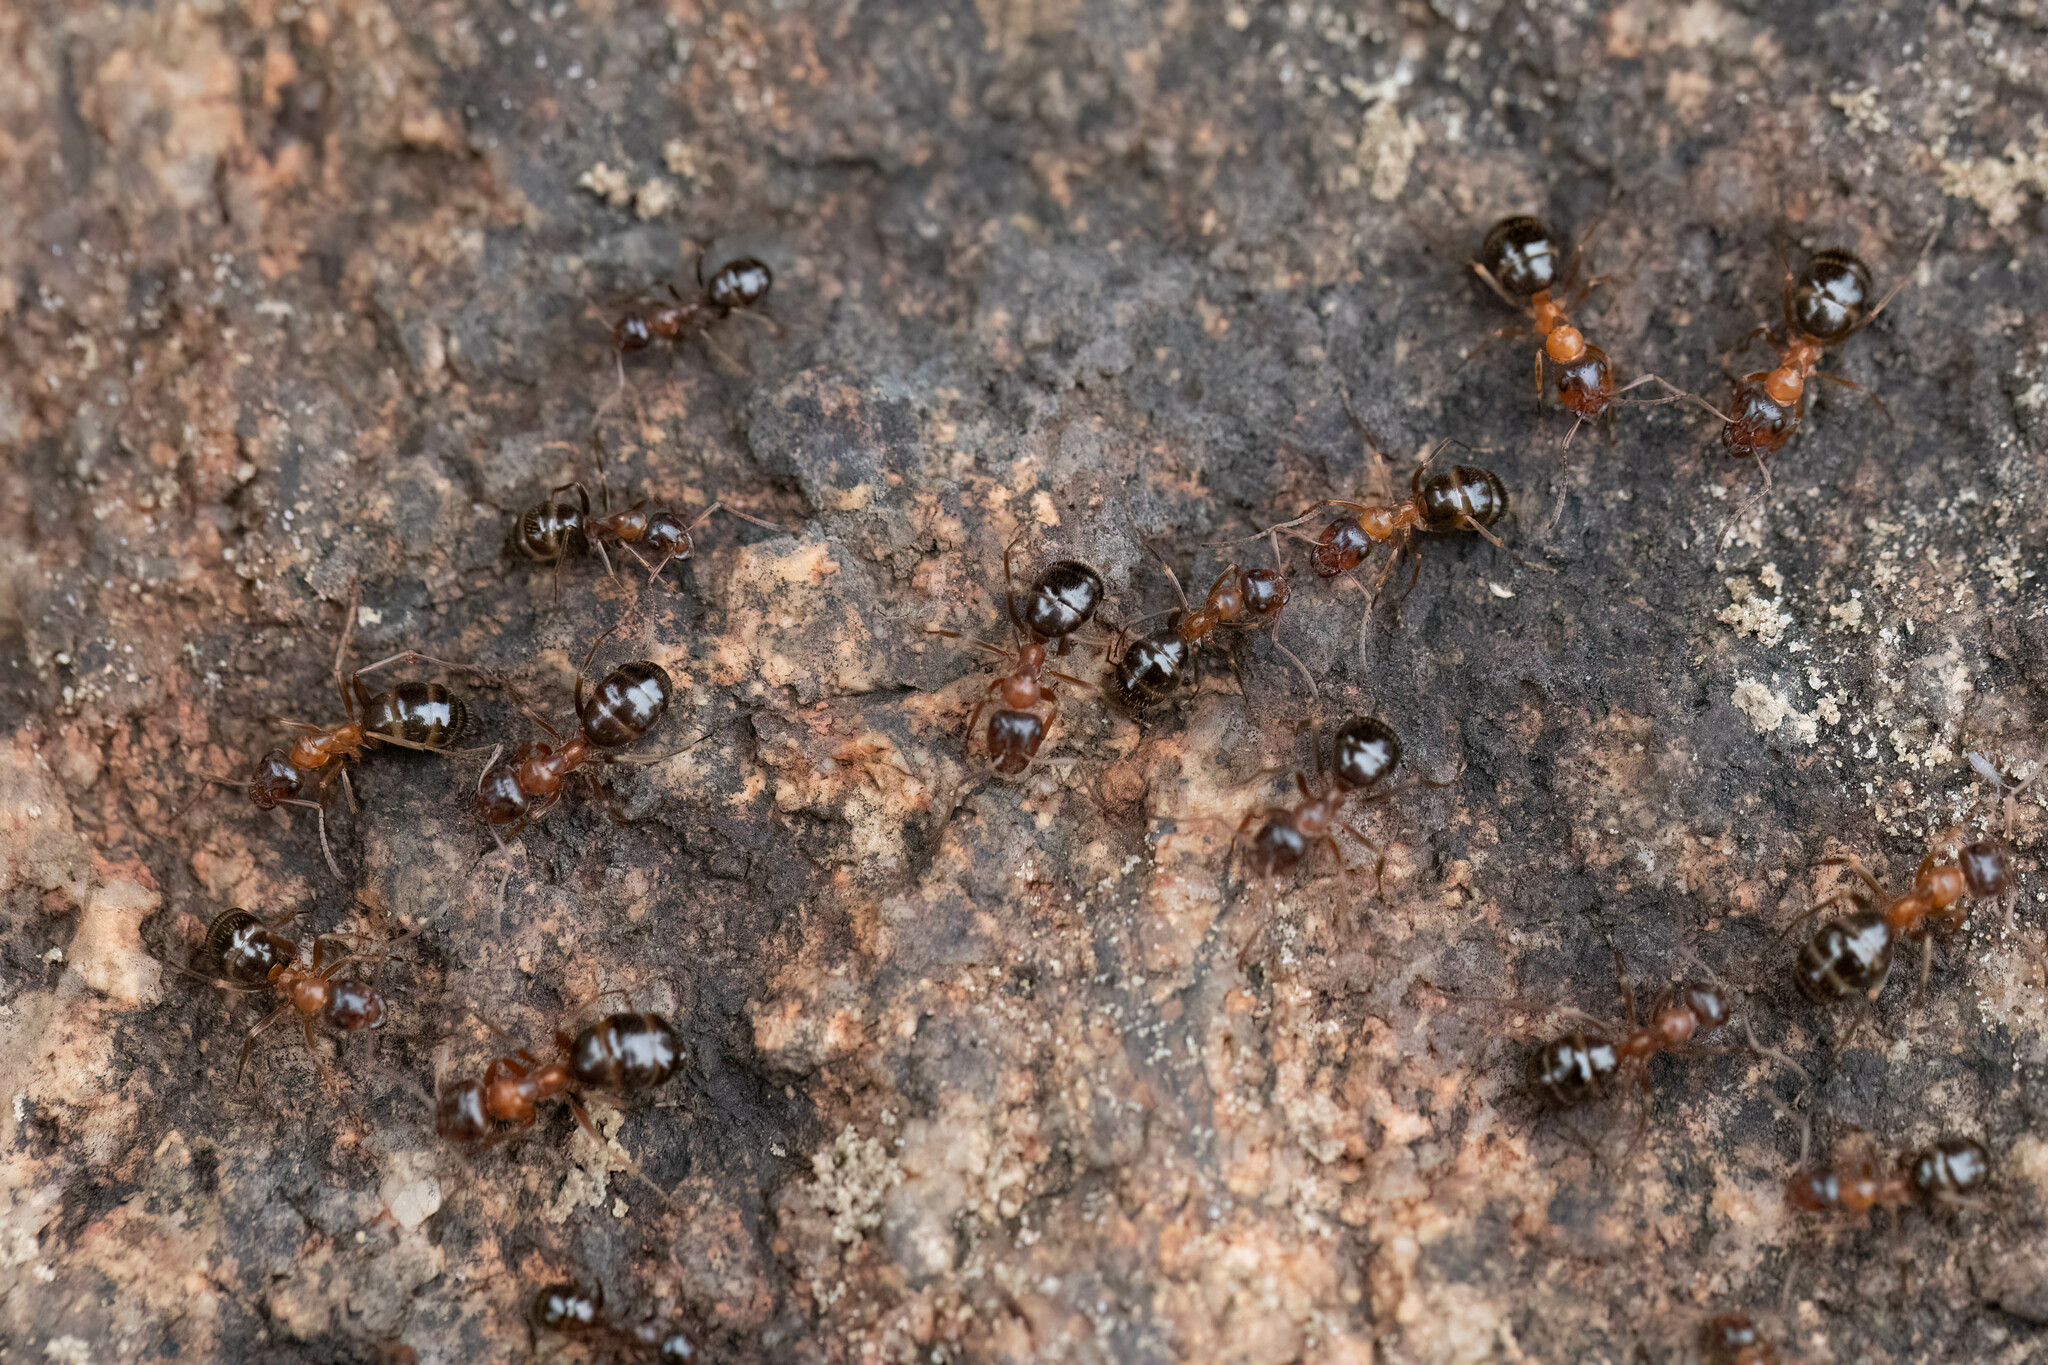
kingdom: Animalia
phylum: Arthropoda
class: Insecta
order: Hymenoptera
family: Formicidae
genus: Formica
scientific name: Formica subpolita
